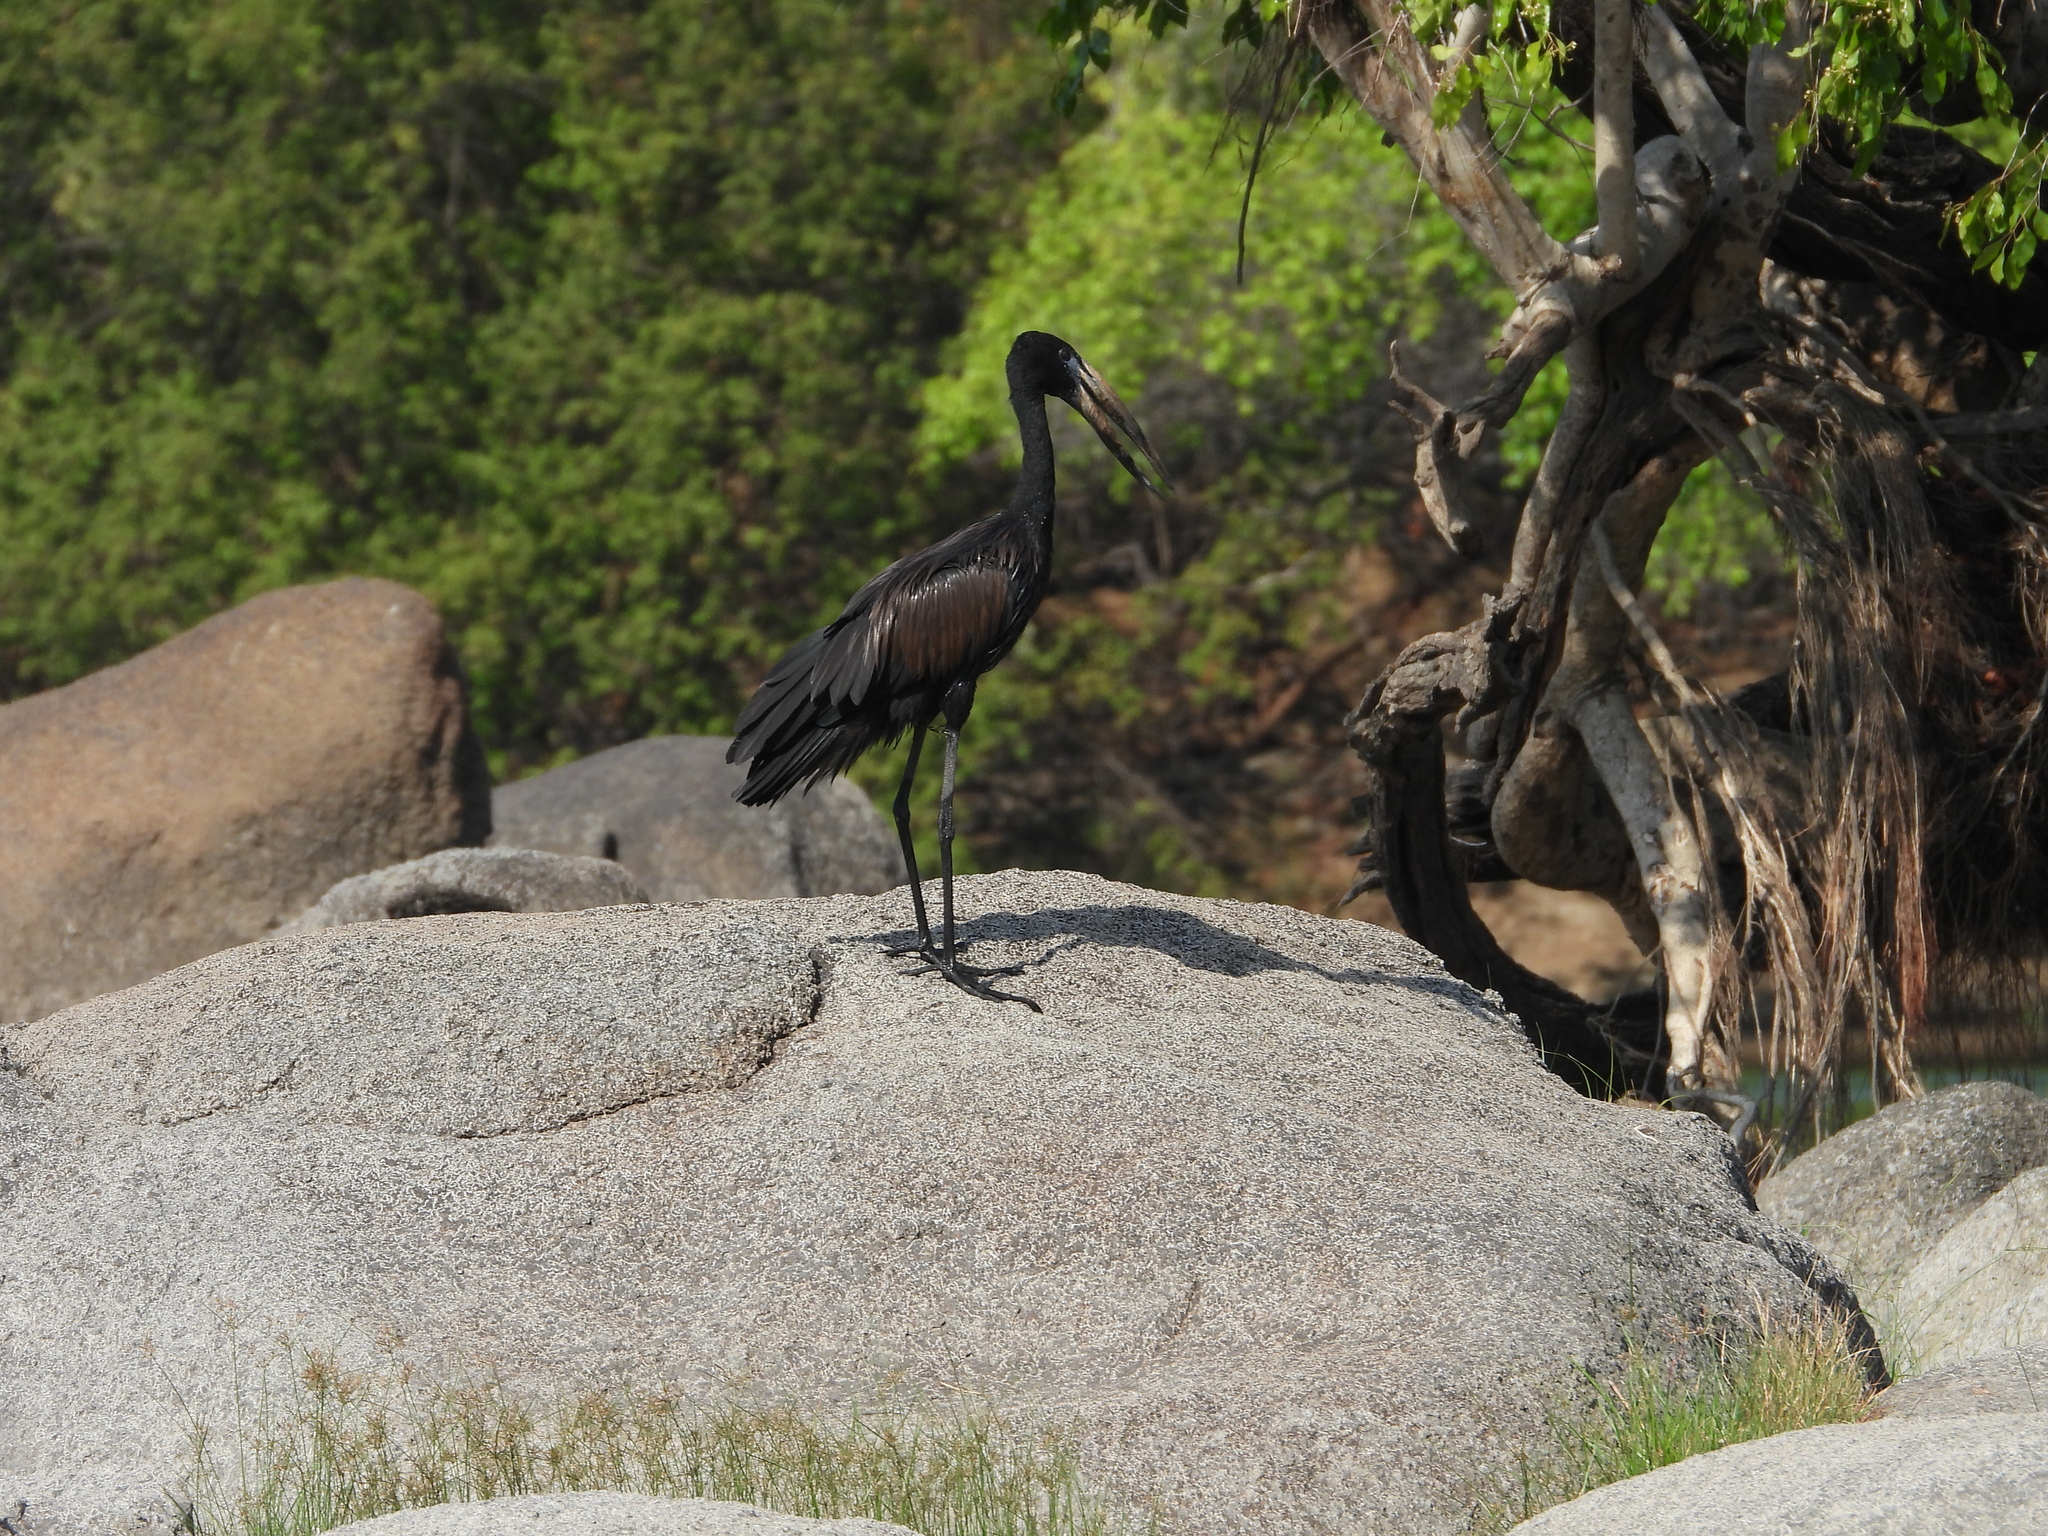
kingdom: Animalia
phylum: Chordata
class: Aves
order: Ciconiiformes
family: Ciconiidae
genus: Anastomus
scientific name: Anastomus lamelligerus
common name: African openbill
